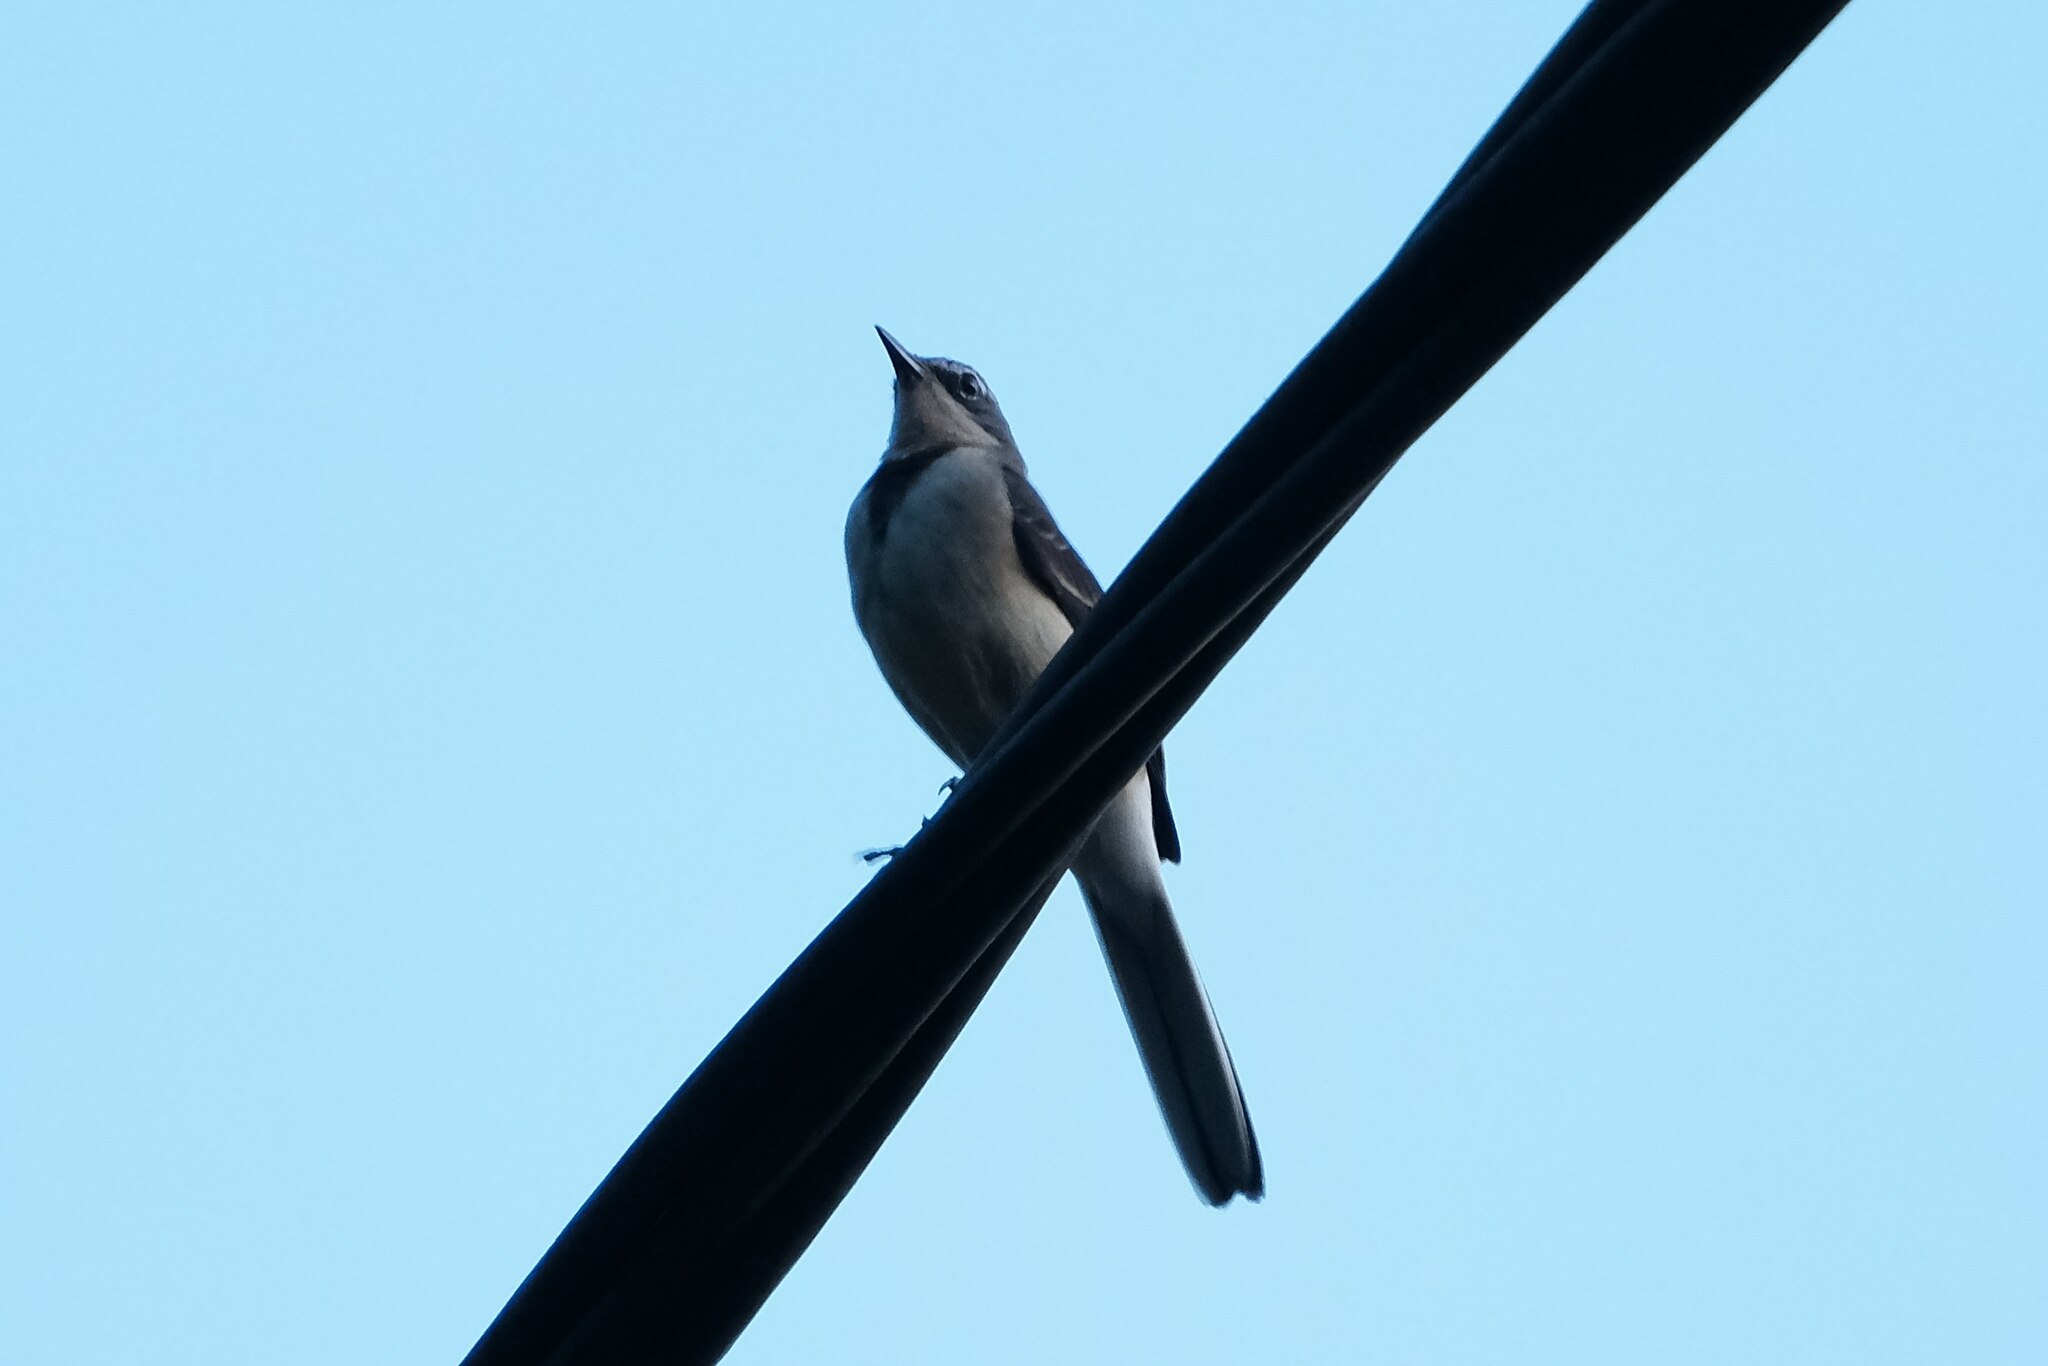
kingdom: Animalia
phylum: Chordata
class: Aves
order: Passeriformes
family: Motacillidae
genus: Motacilla
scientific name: Motacilla clara
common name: Mountain wagtail
